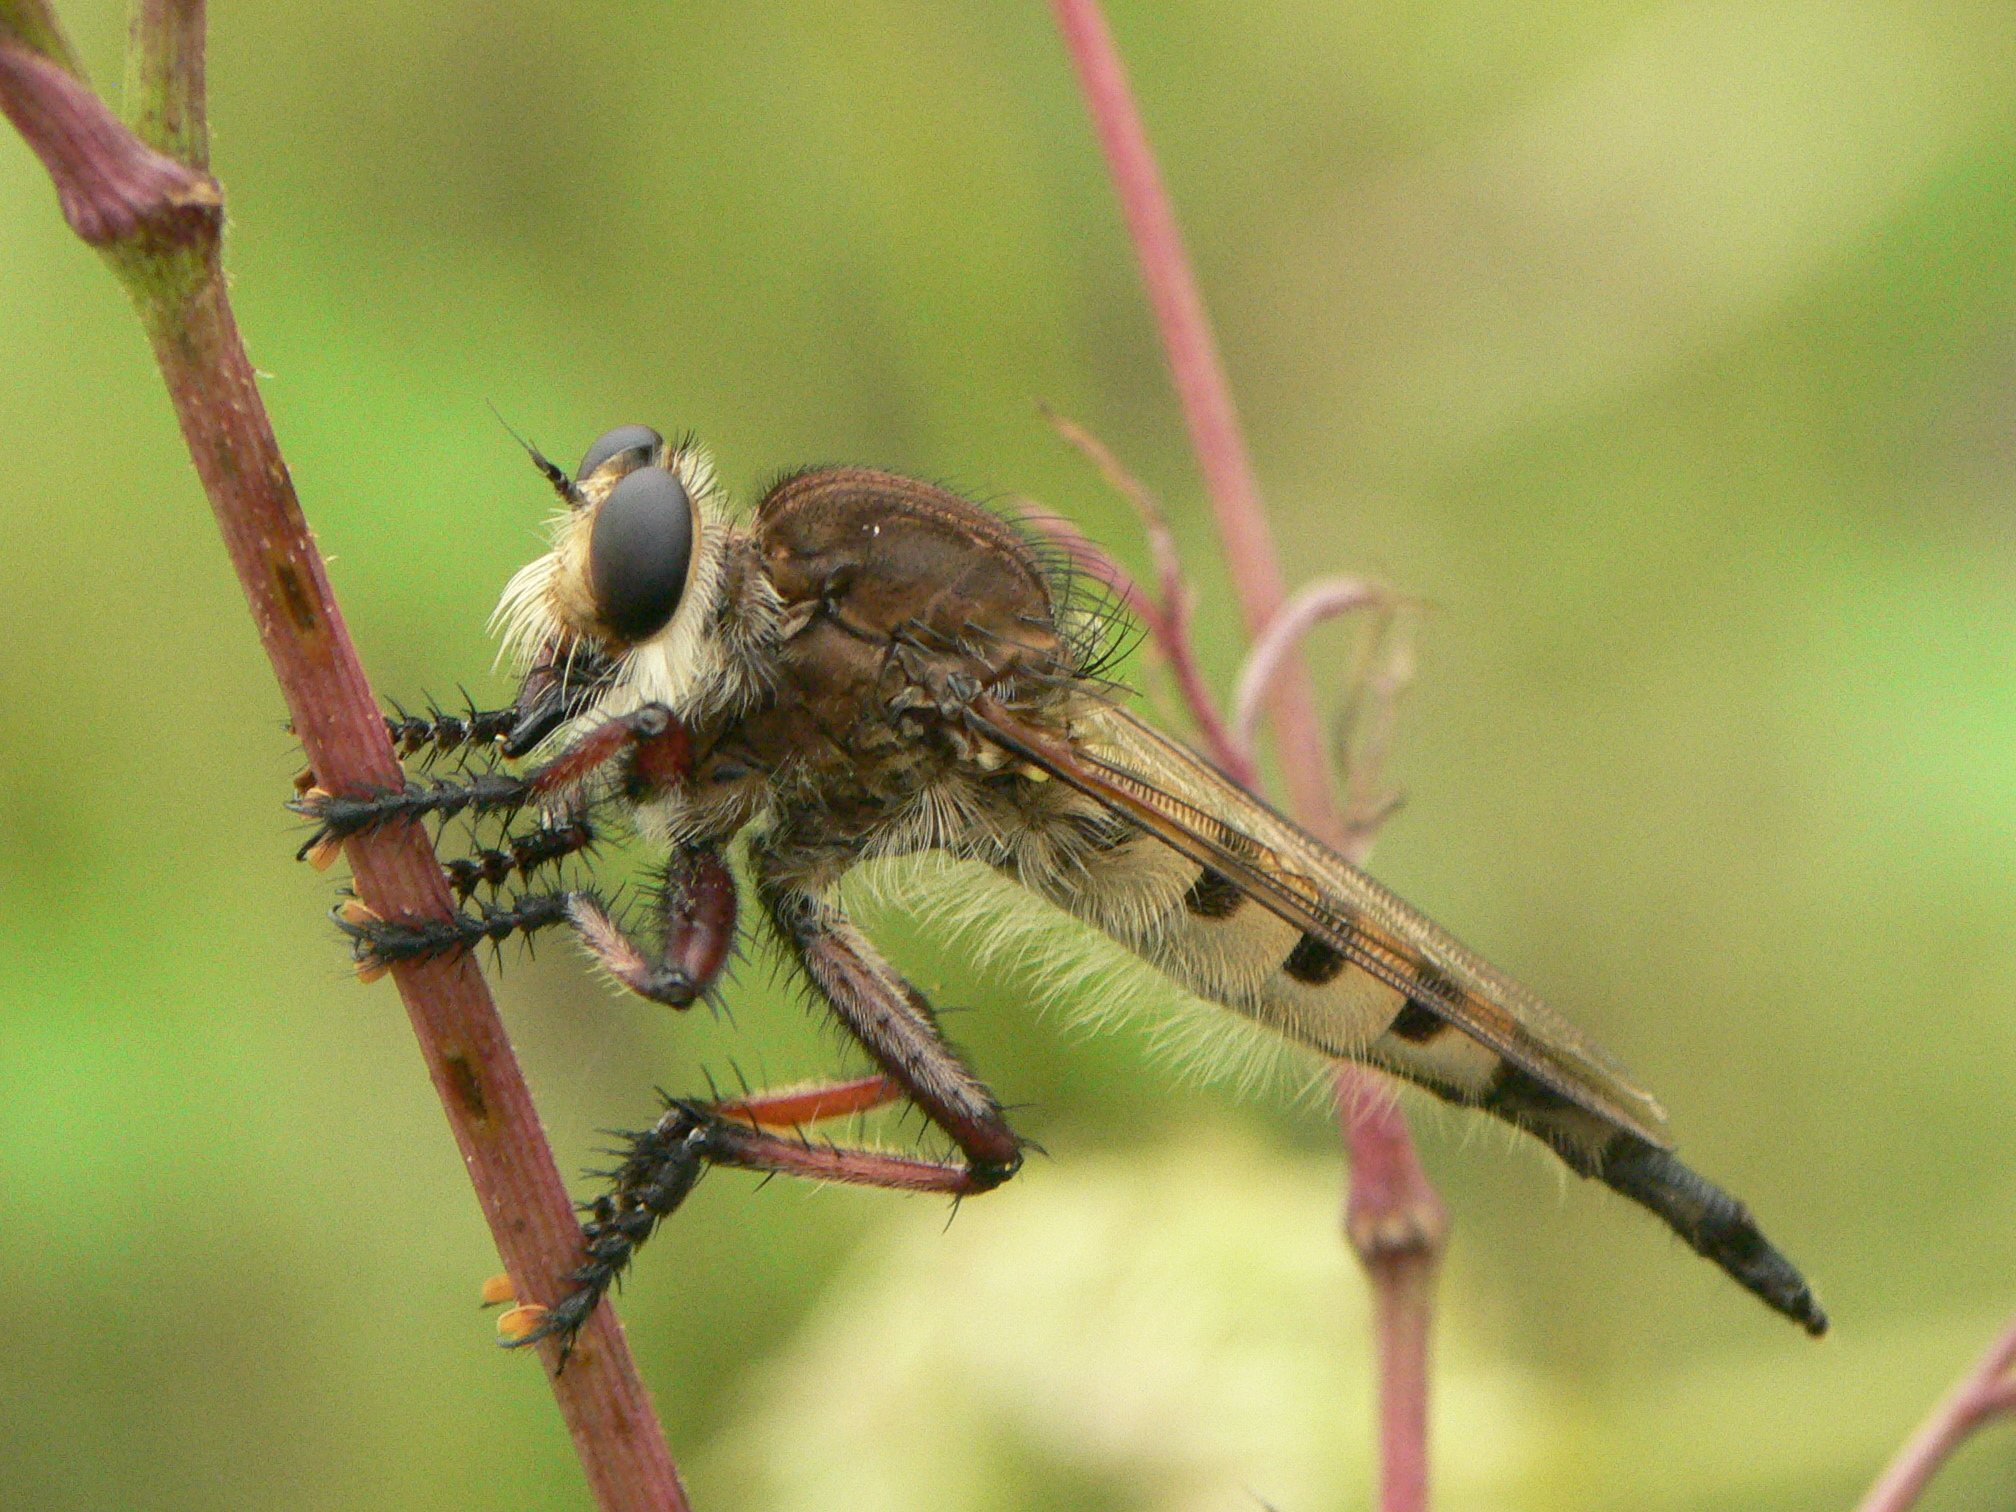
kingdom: Animalia
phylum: Arthropoda
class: Insecta
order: Diptera
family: Asilidae
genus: Promachus
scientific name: Promachus hinei
